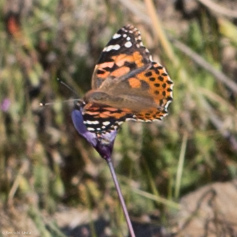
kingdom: Animalia
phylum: Arthropoda
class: Insecta
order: Lepidoptera
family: Nymphalidae
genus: Vanessa
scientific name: Vanessa cardui
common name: Painted lady
